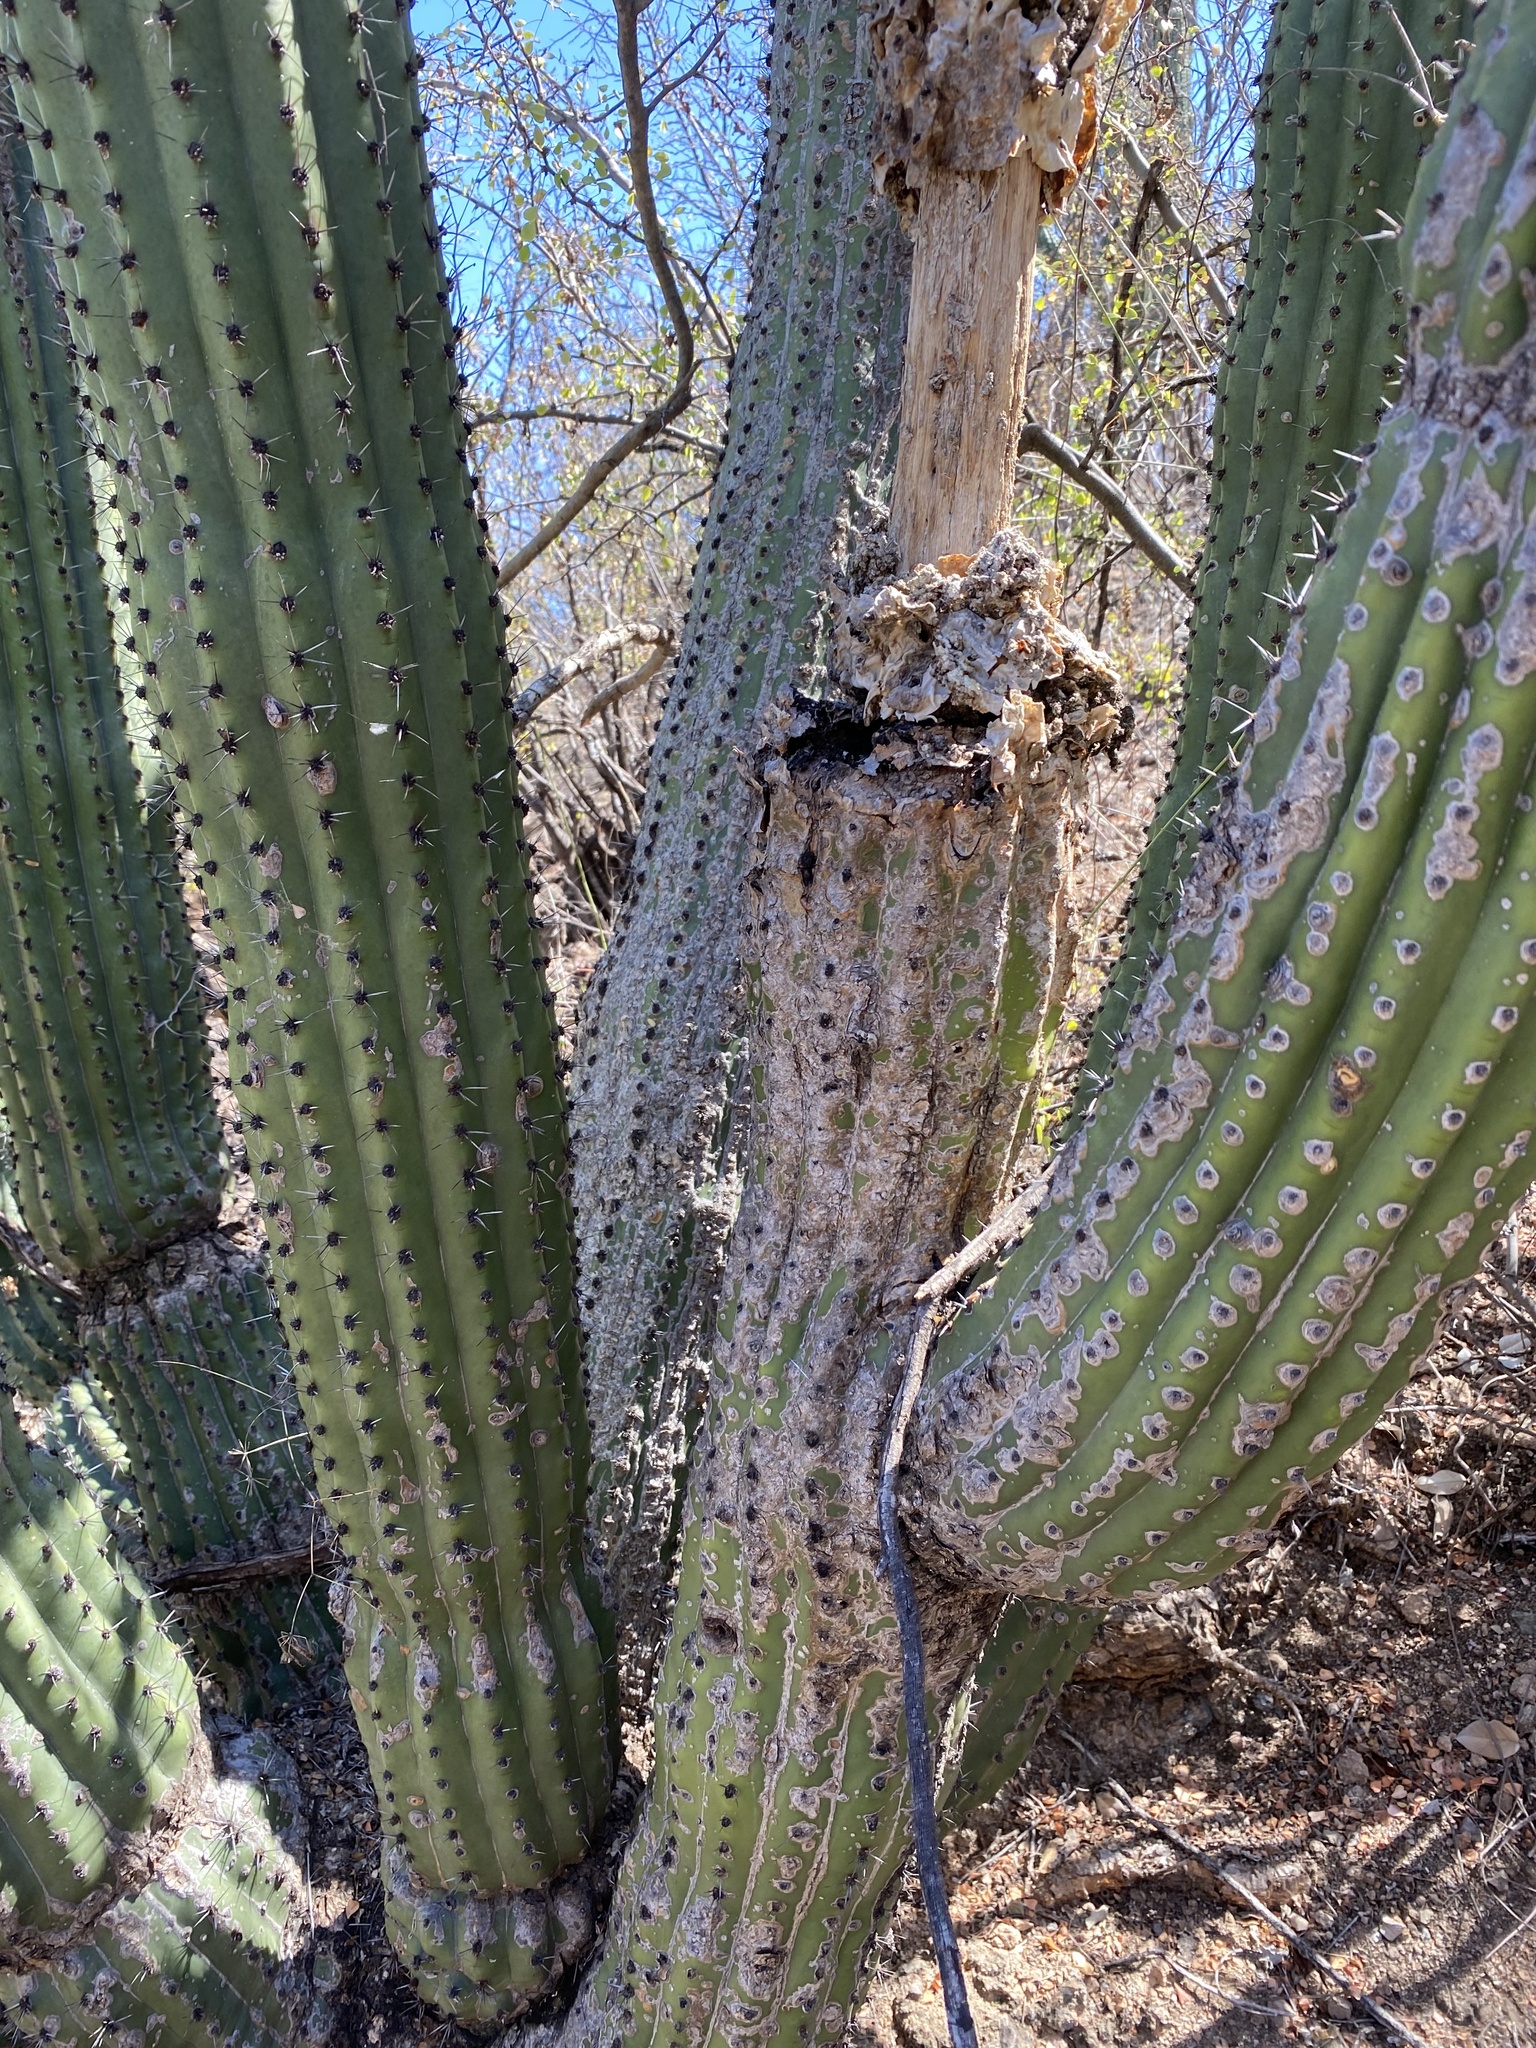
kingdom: Plantae
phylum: Tracheophyta
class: Magnoliopsida
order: Caryophyllales
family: Cactaceae
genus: Stenocereus
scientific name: Stenocereus thurberi
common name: Organ pipe cactus
